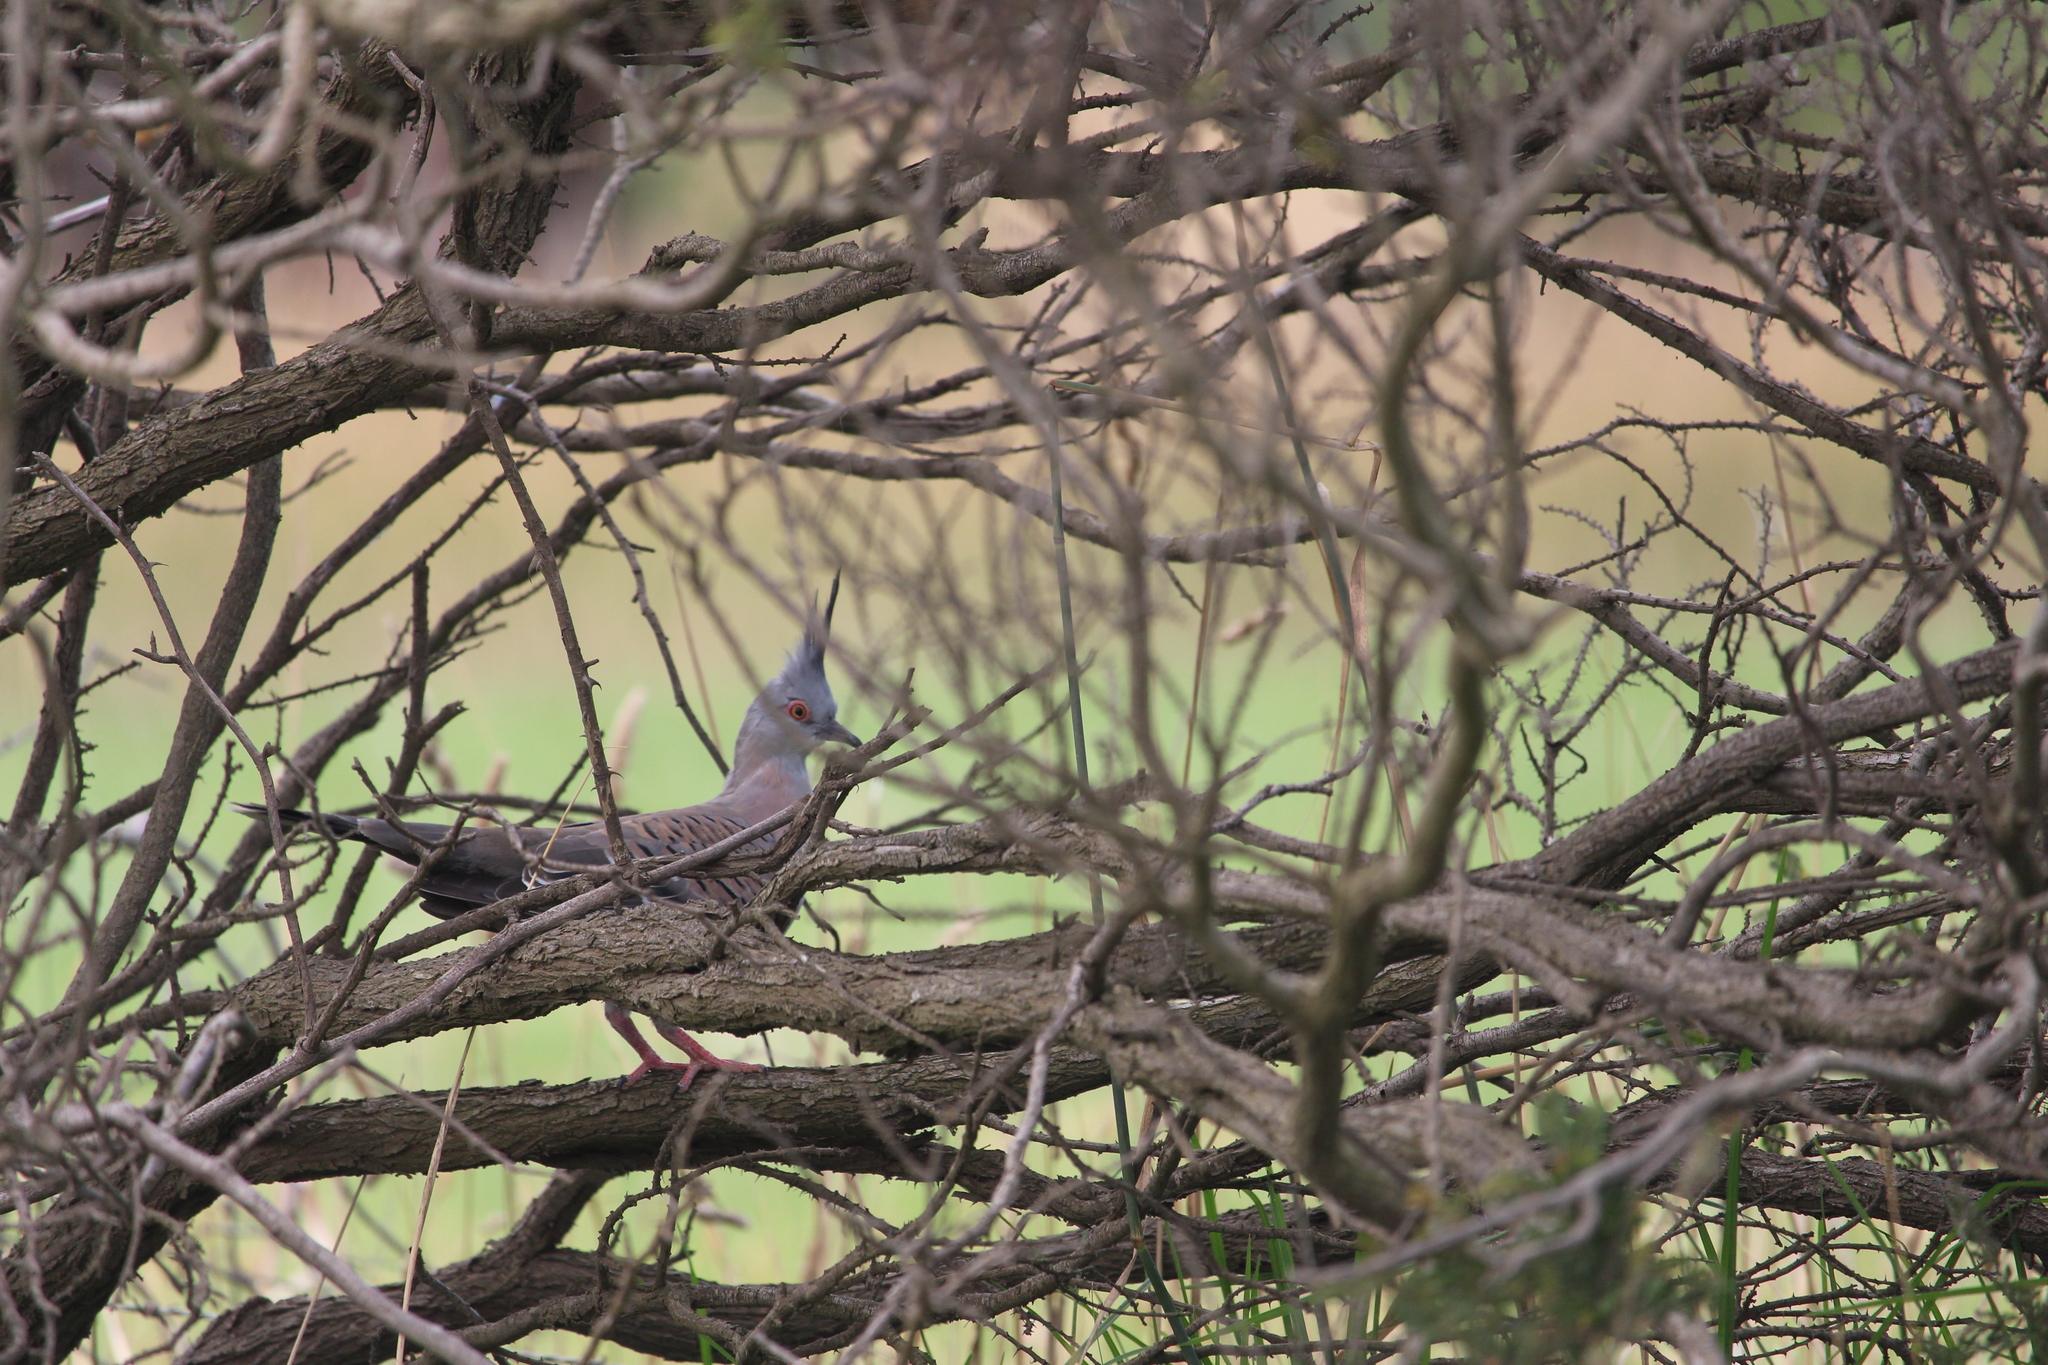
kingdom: Animalia
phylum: Chordata
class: Aves
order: Columbiformes
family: Columbidae
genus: Ocyphaps
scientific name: Ocyphaps lophotes
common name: Crested pigeon
